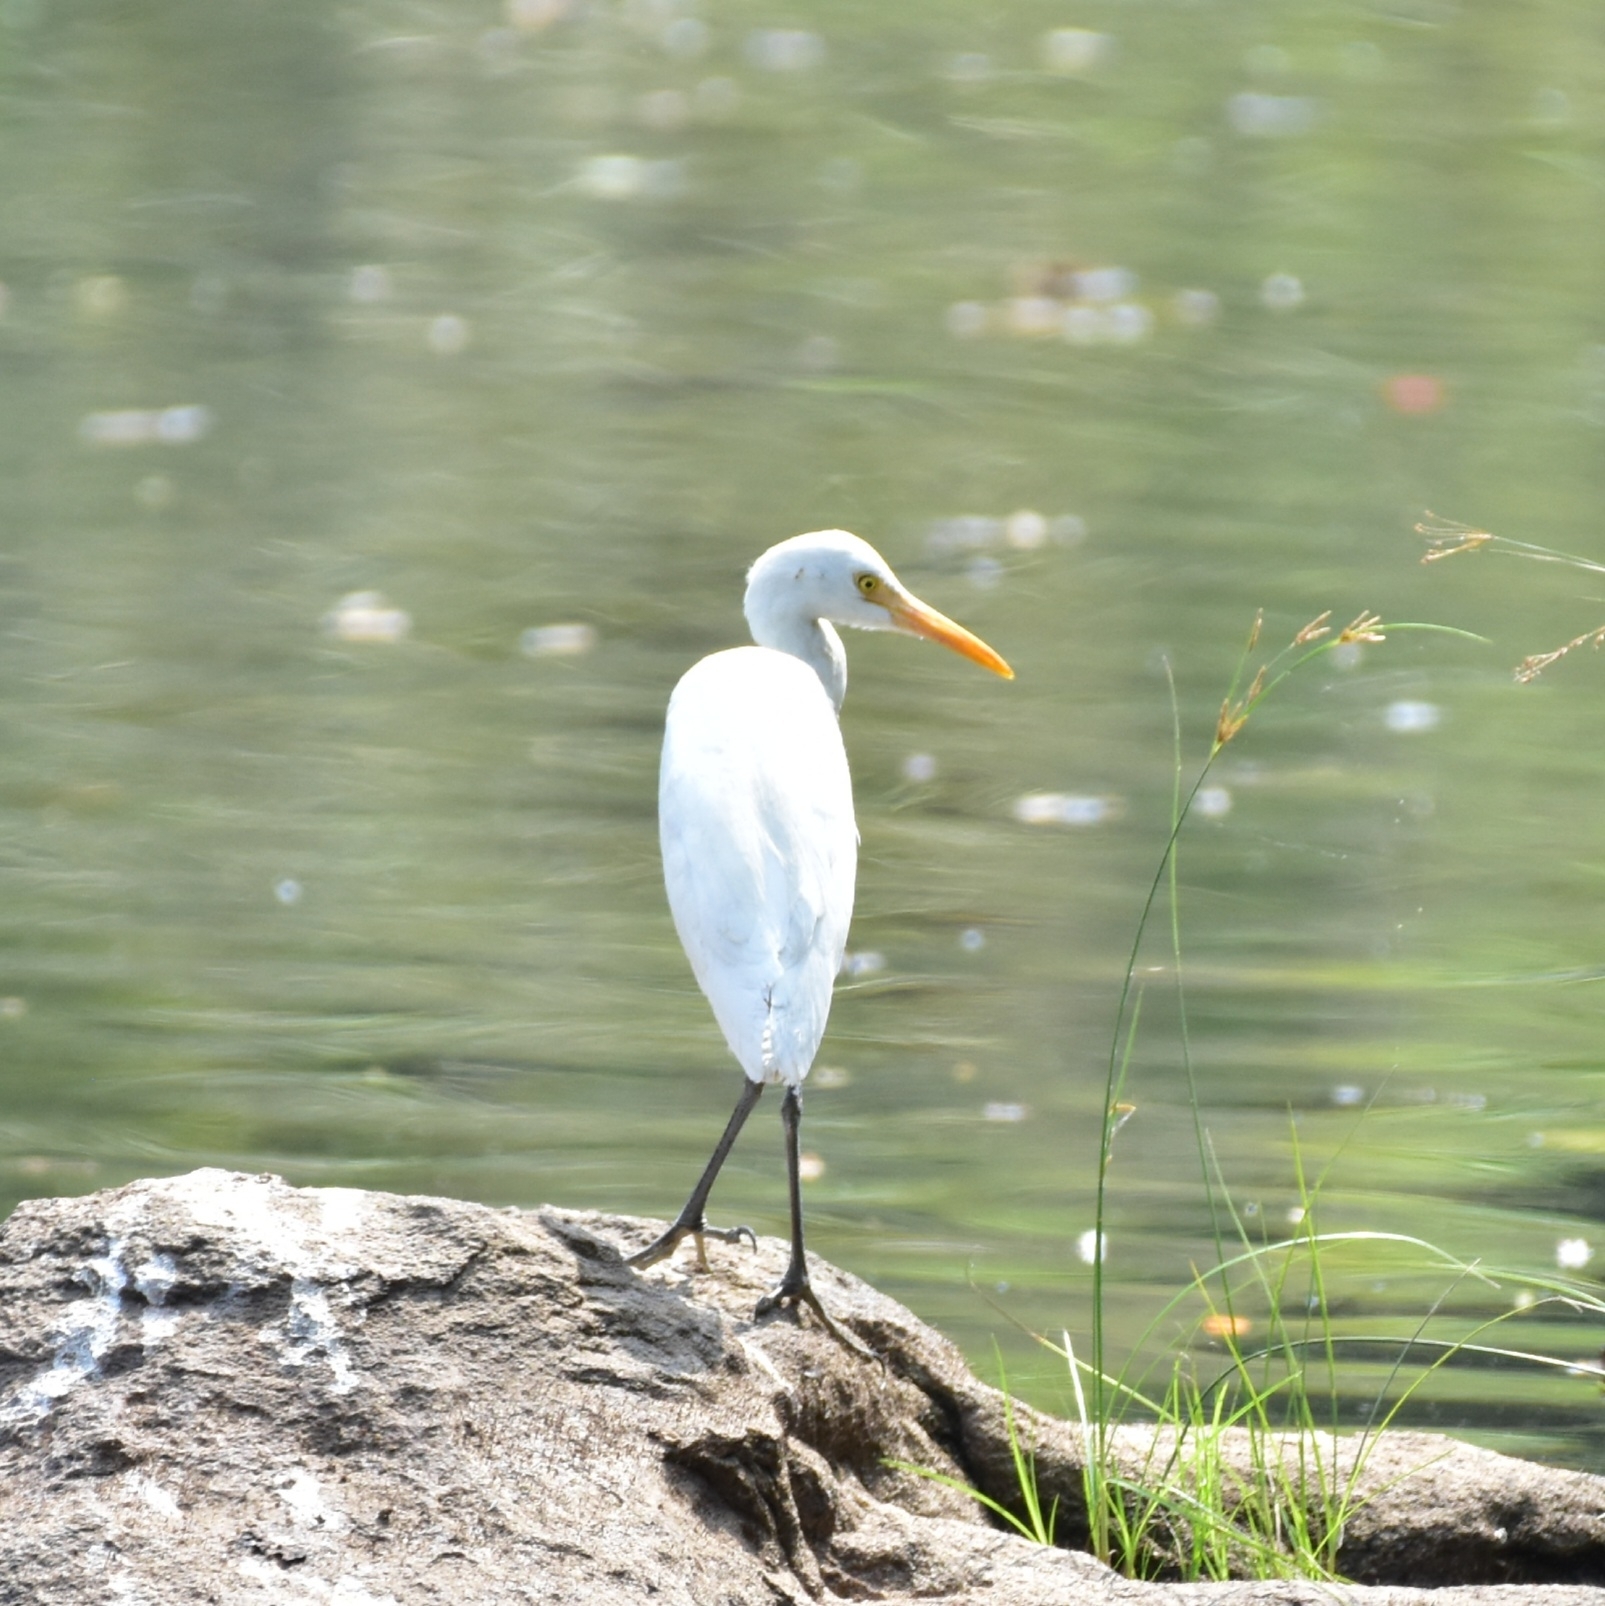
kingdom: Animalia
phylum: Chordata
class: Aves
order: Pelecaniformes
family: Ardeidae
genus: Bubulcus
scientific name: Bubulcus coromandus
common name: Eastern cattle egret
